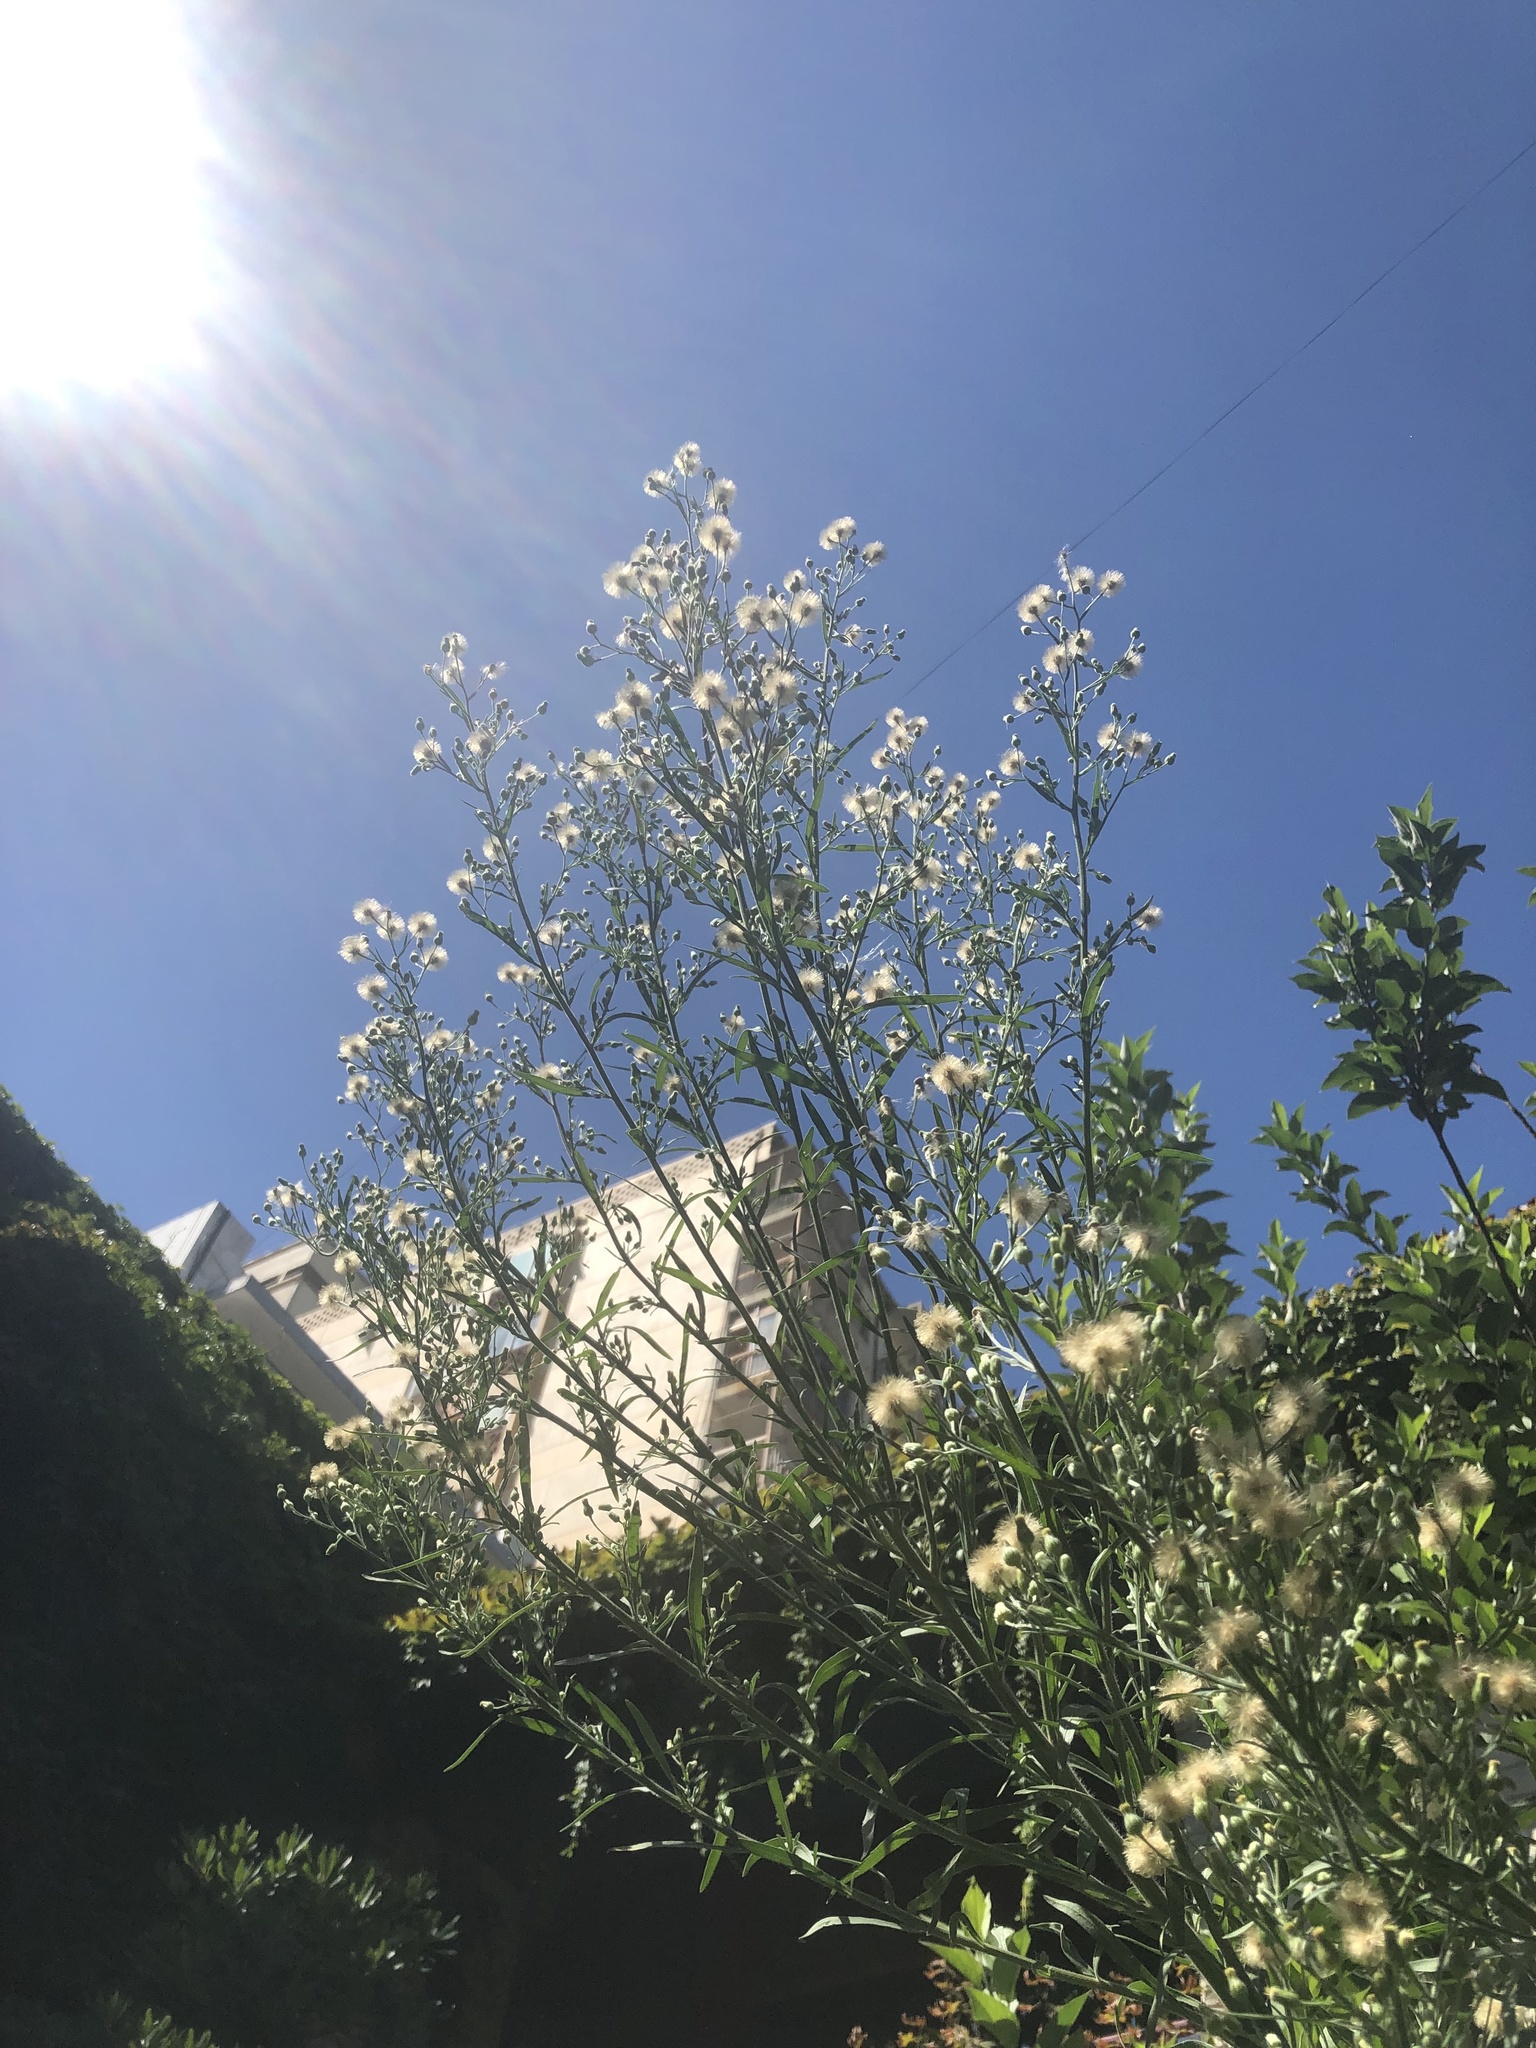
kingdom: Plantae
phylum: Tracheophyta
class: Magnoliopsida
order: Asterales
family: Asteraceae
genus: Erigeron
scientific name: Erigeron bonariensis
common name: Argentine fleabane
